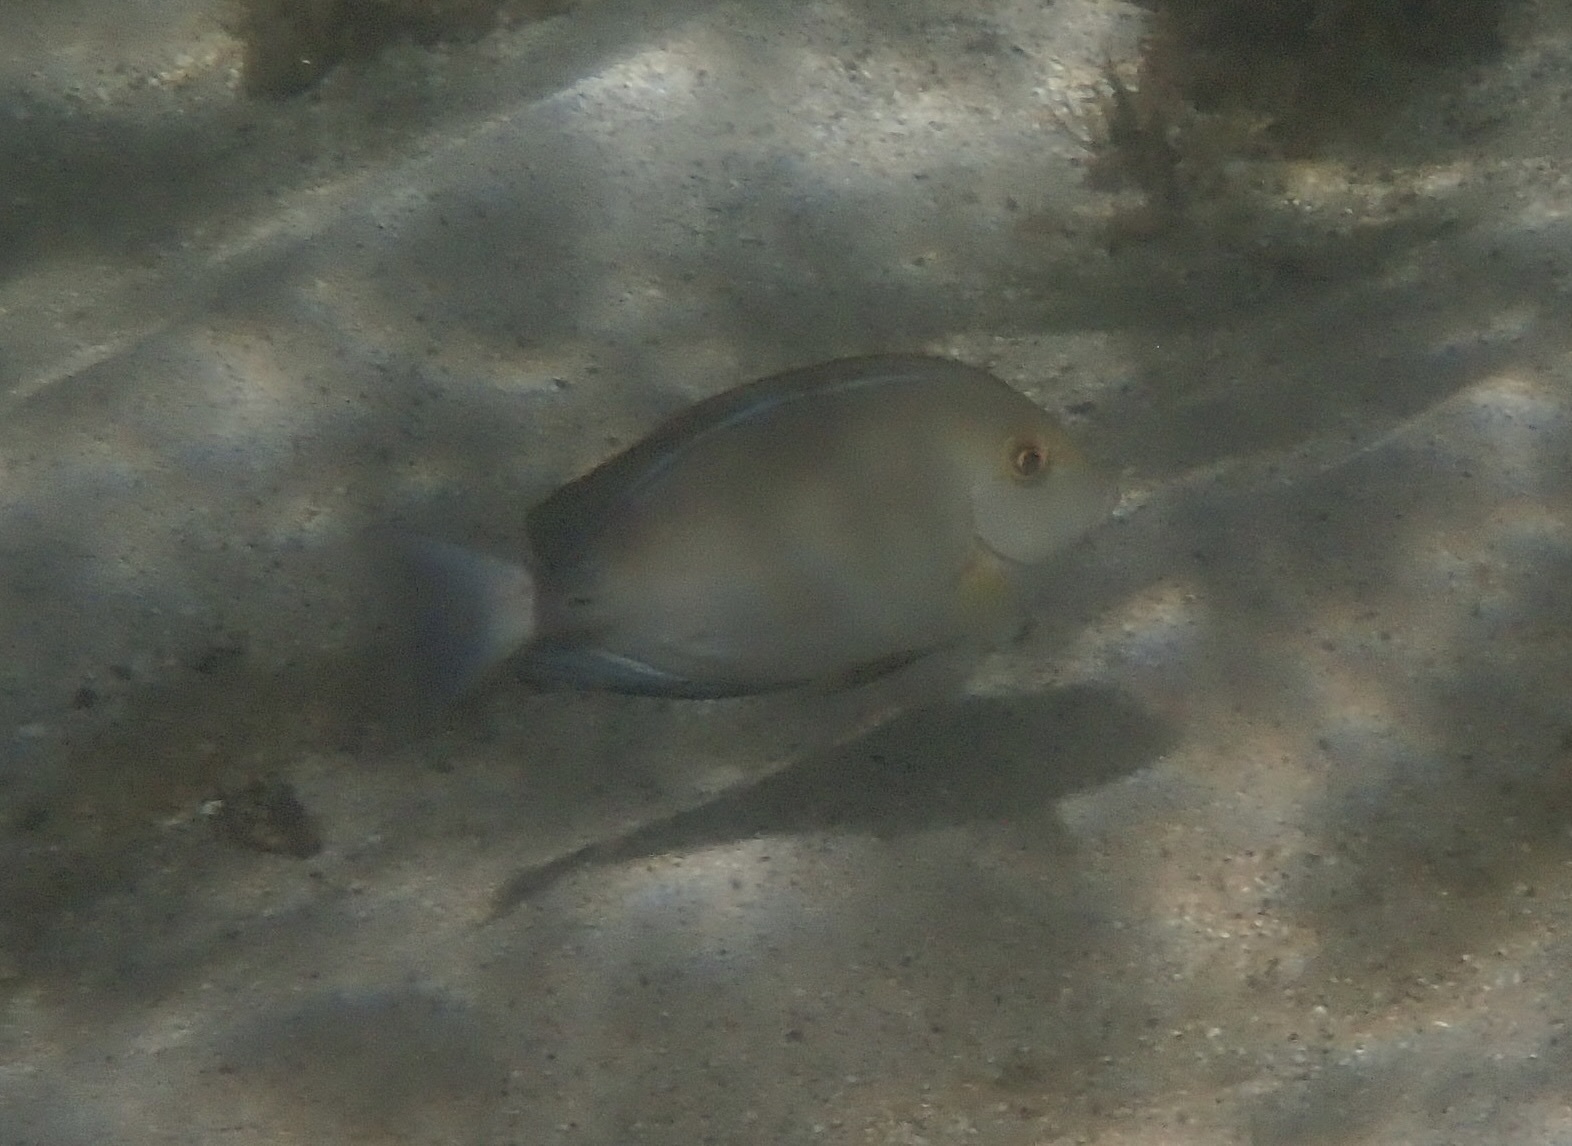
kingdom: Animalia
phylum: Chordata
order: Perciformes
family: Acanthuridae
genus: Acanthurus
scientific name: Acanthurus xanthopterus
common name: Cuvier's surgeonfish
